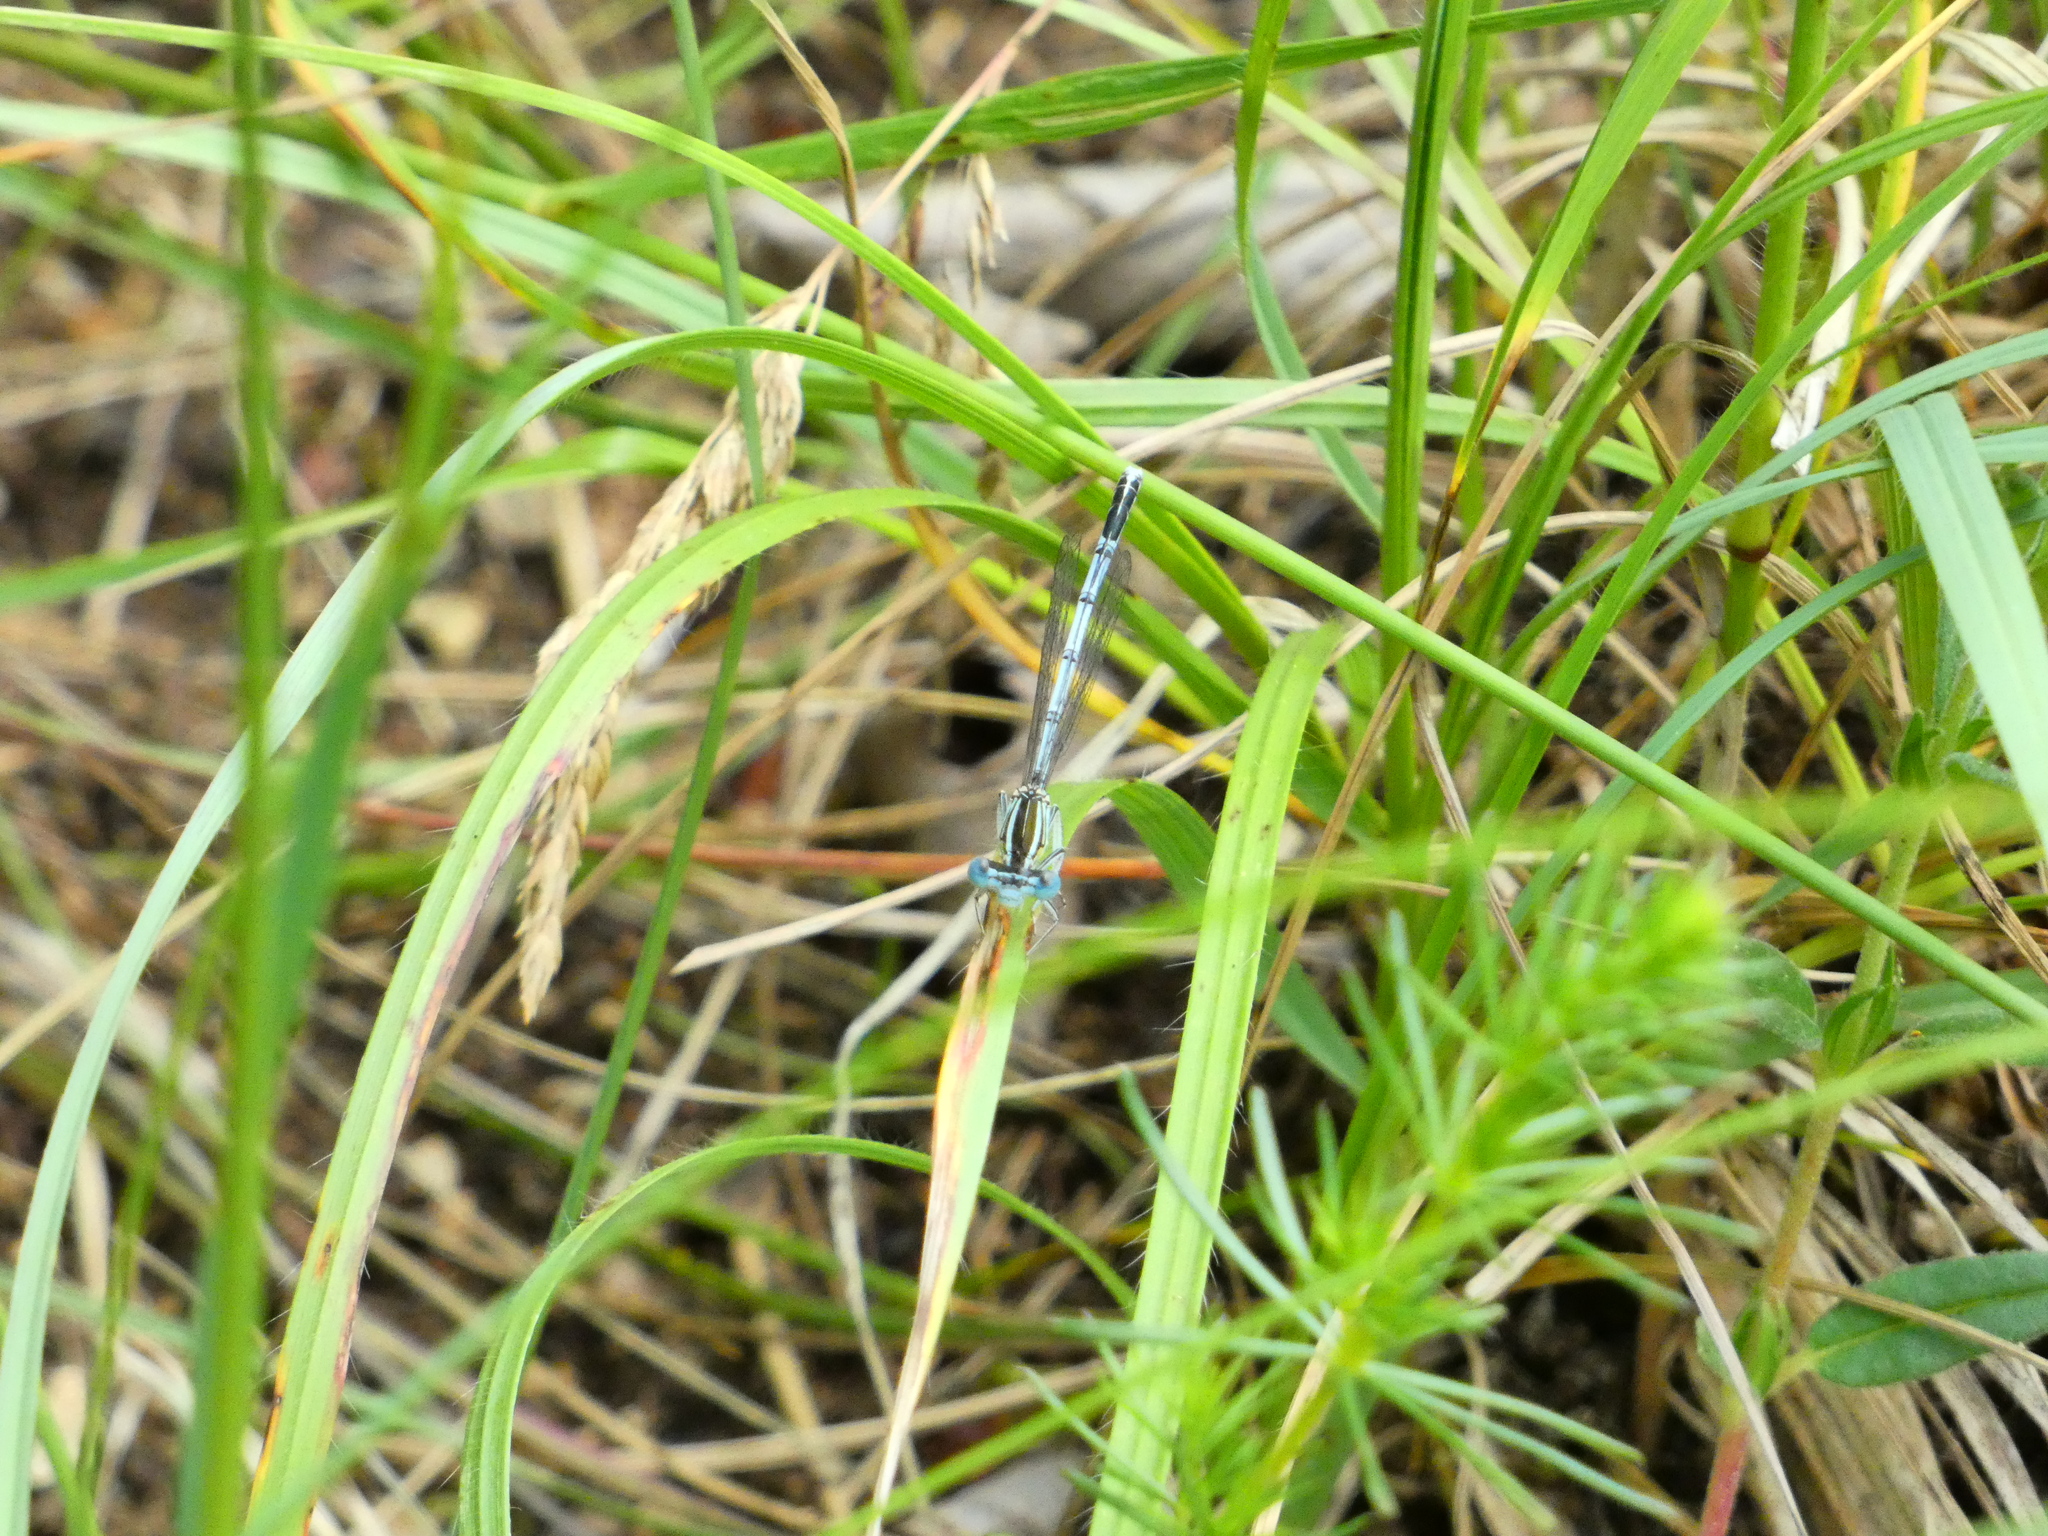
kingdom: Animalia
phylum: Arthropoda
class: Insecta
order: Odonata
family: Platycnemididae
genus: Platycnemis
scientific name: Platycnemis pennipes
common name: White-legged damselfly
